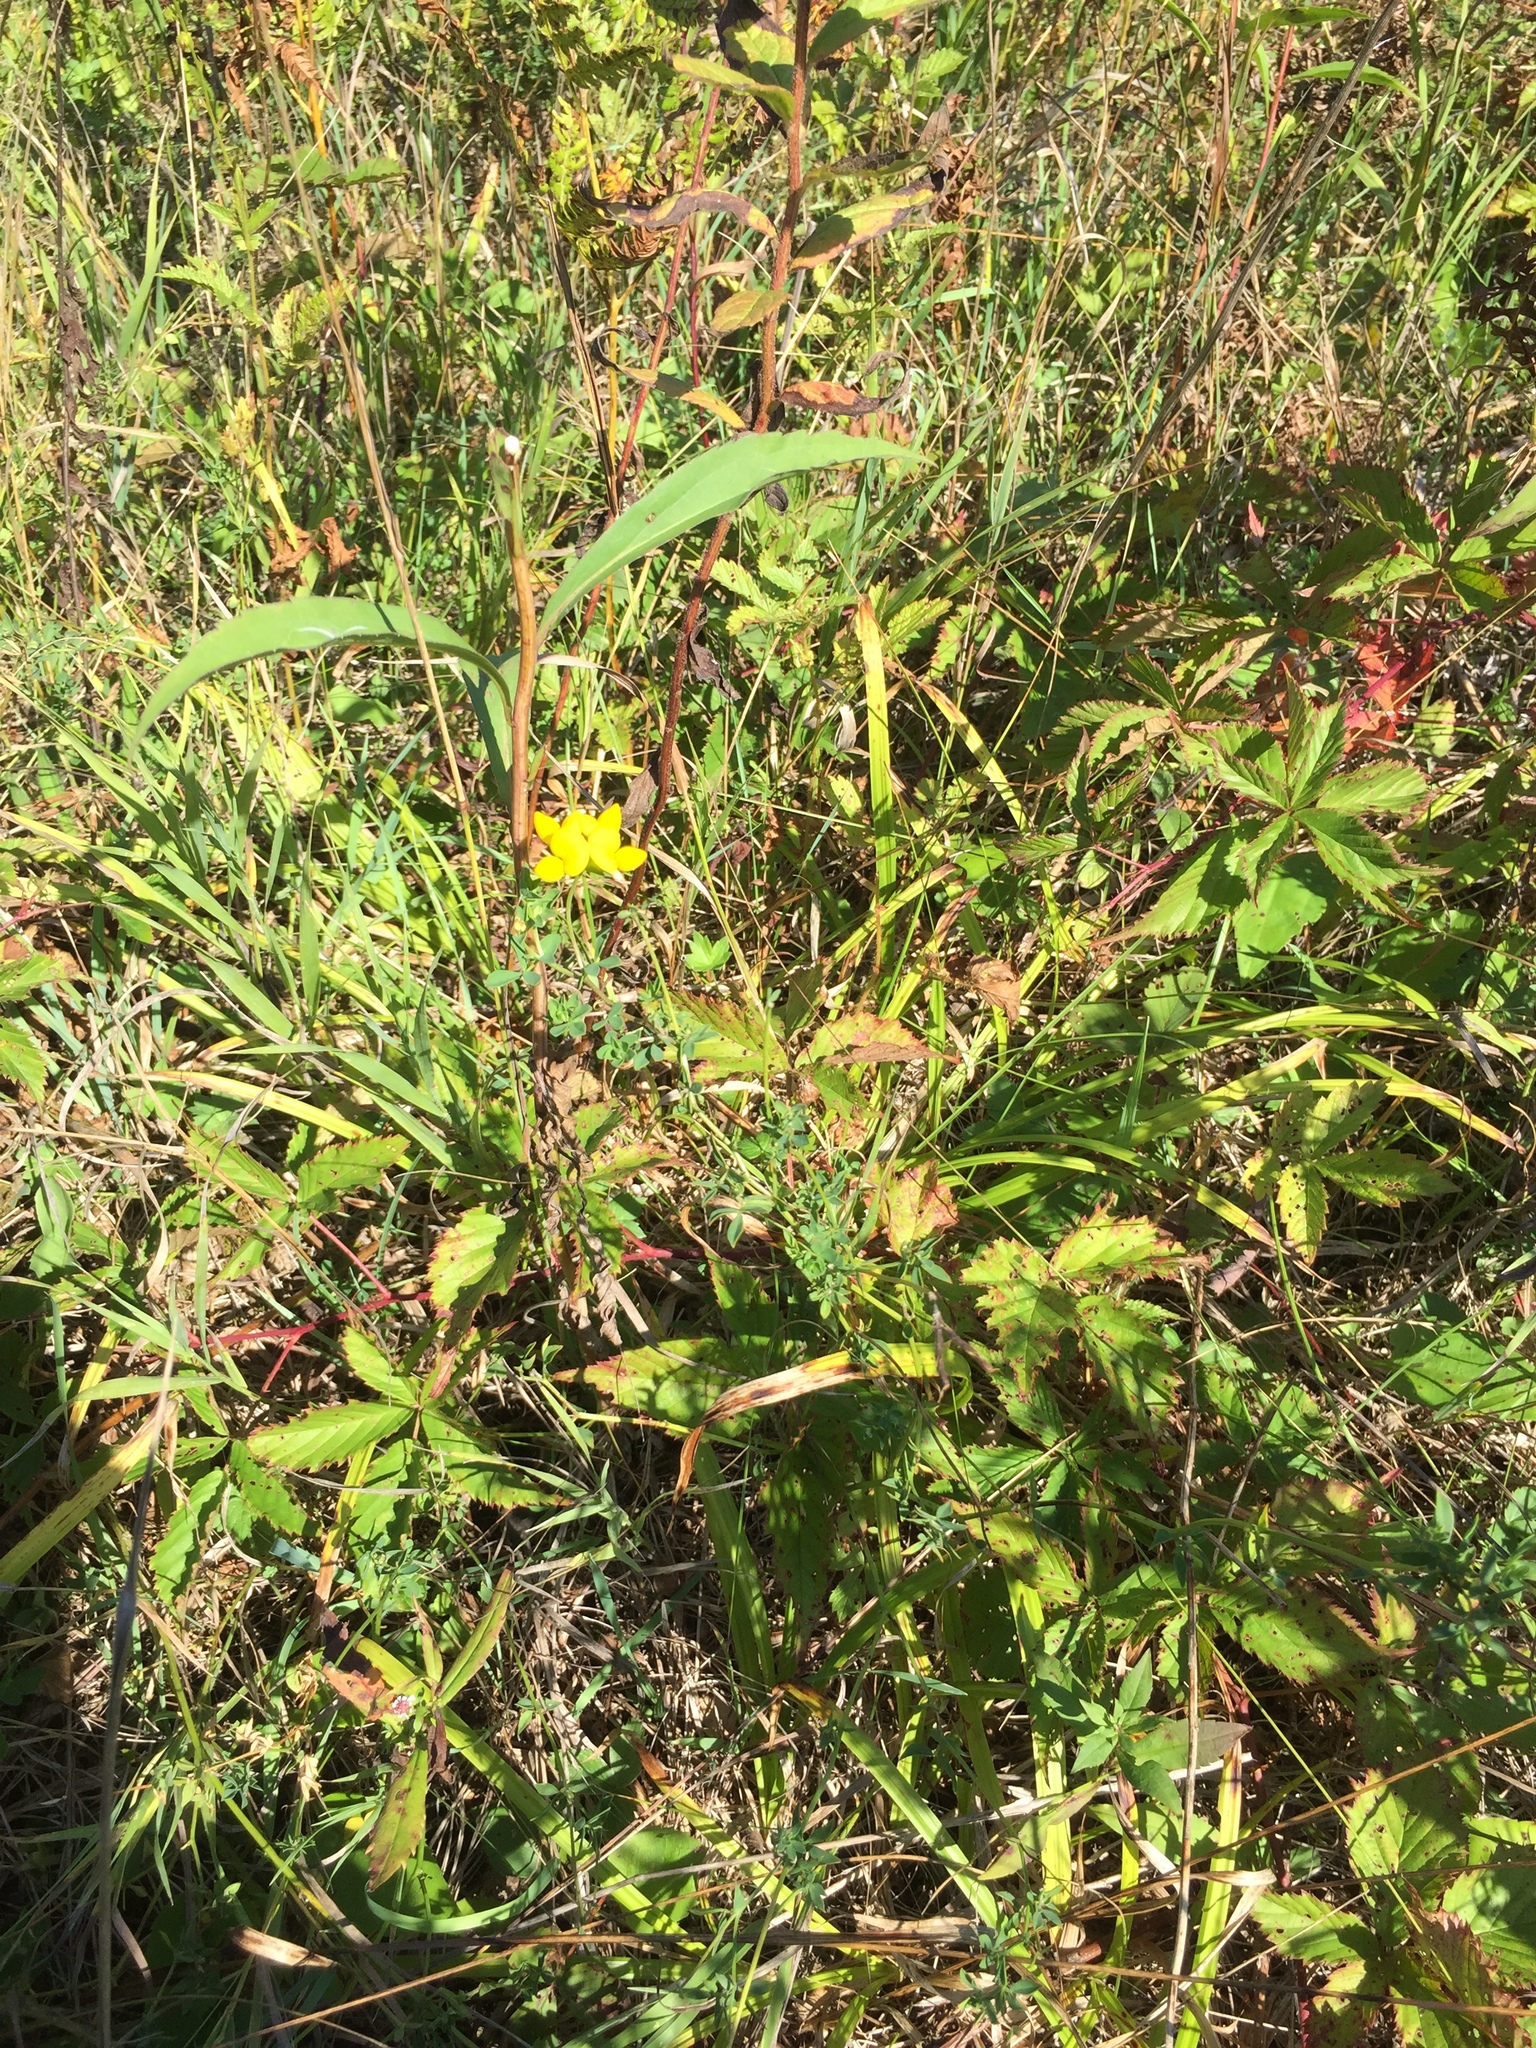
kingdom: Plantae
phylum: Tracheophyta
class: Magnoliopsida
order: Fabales
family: Fabaceae
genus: Lotus
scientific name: Lotus corniculatus
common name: Common bird's-foot-trefoil
